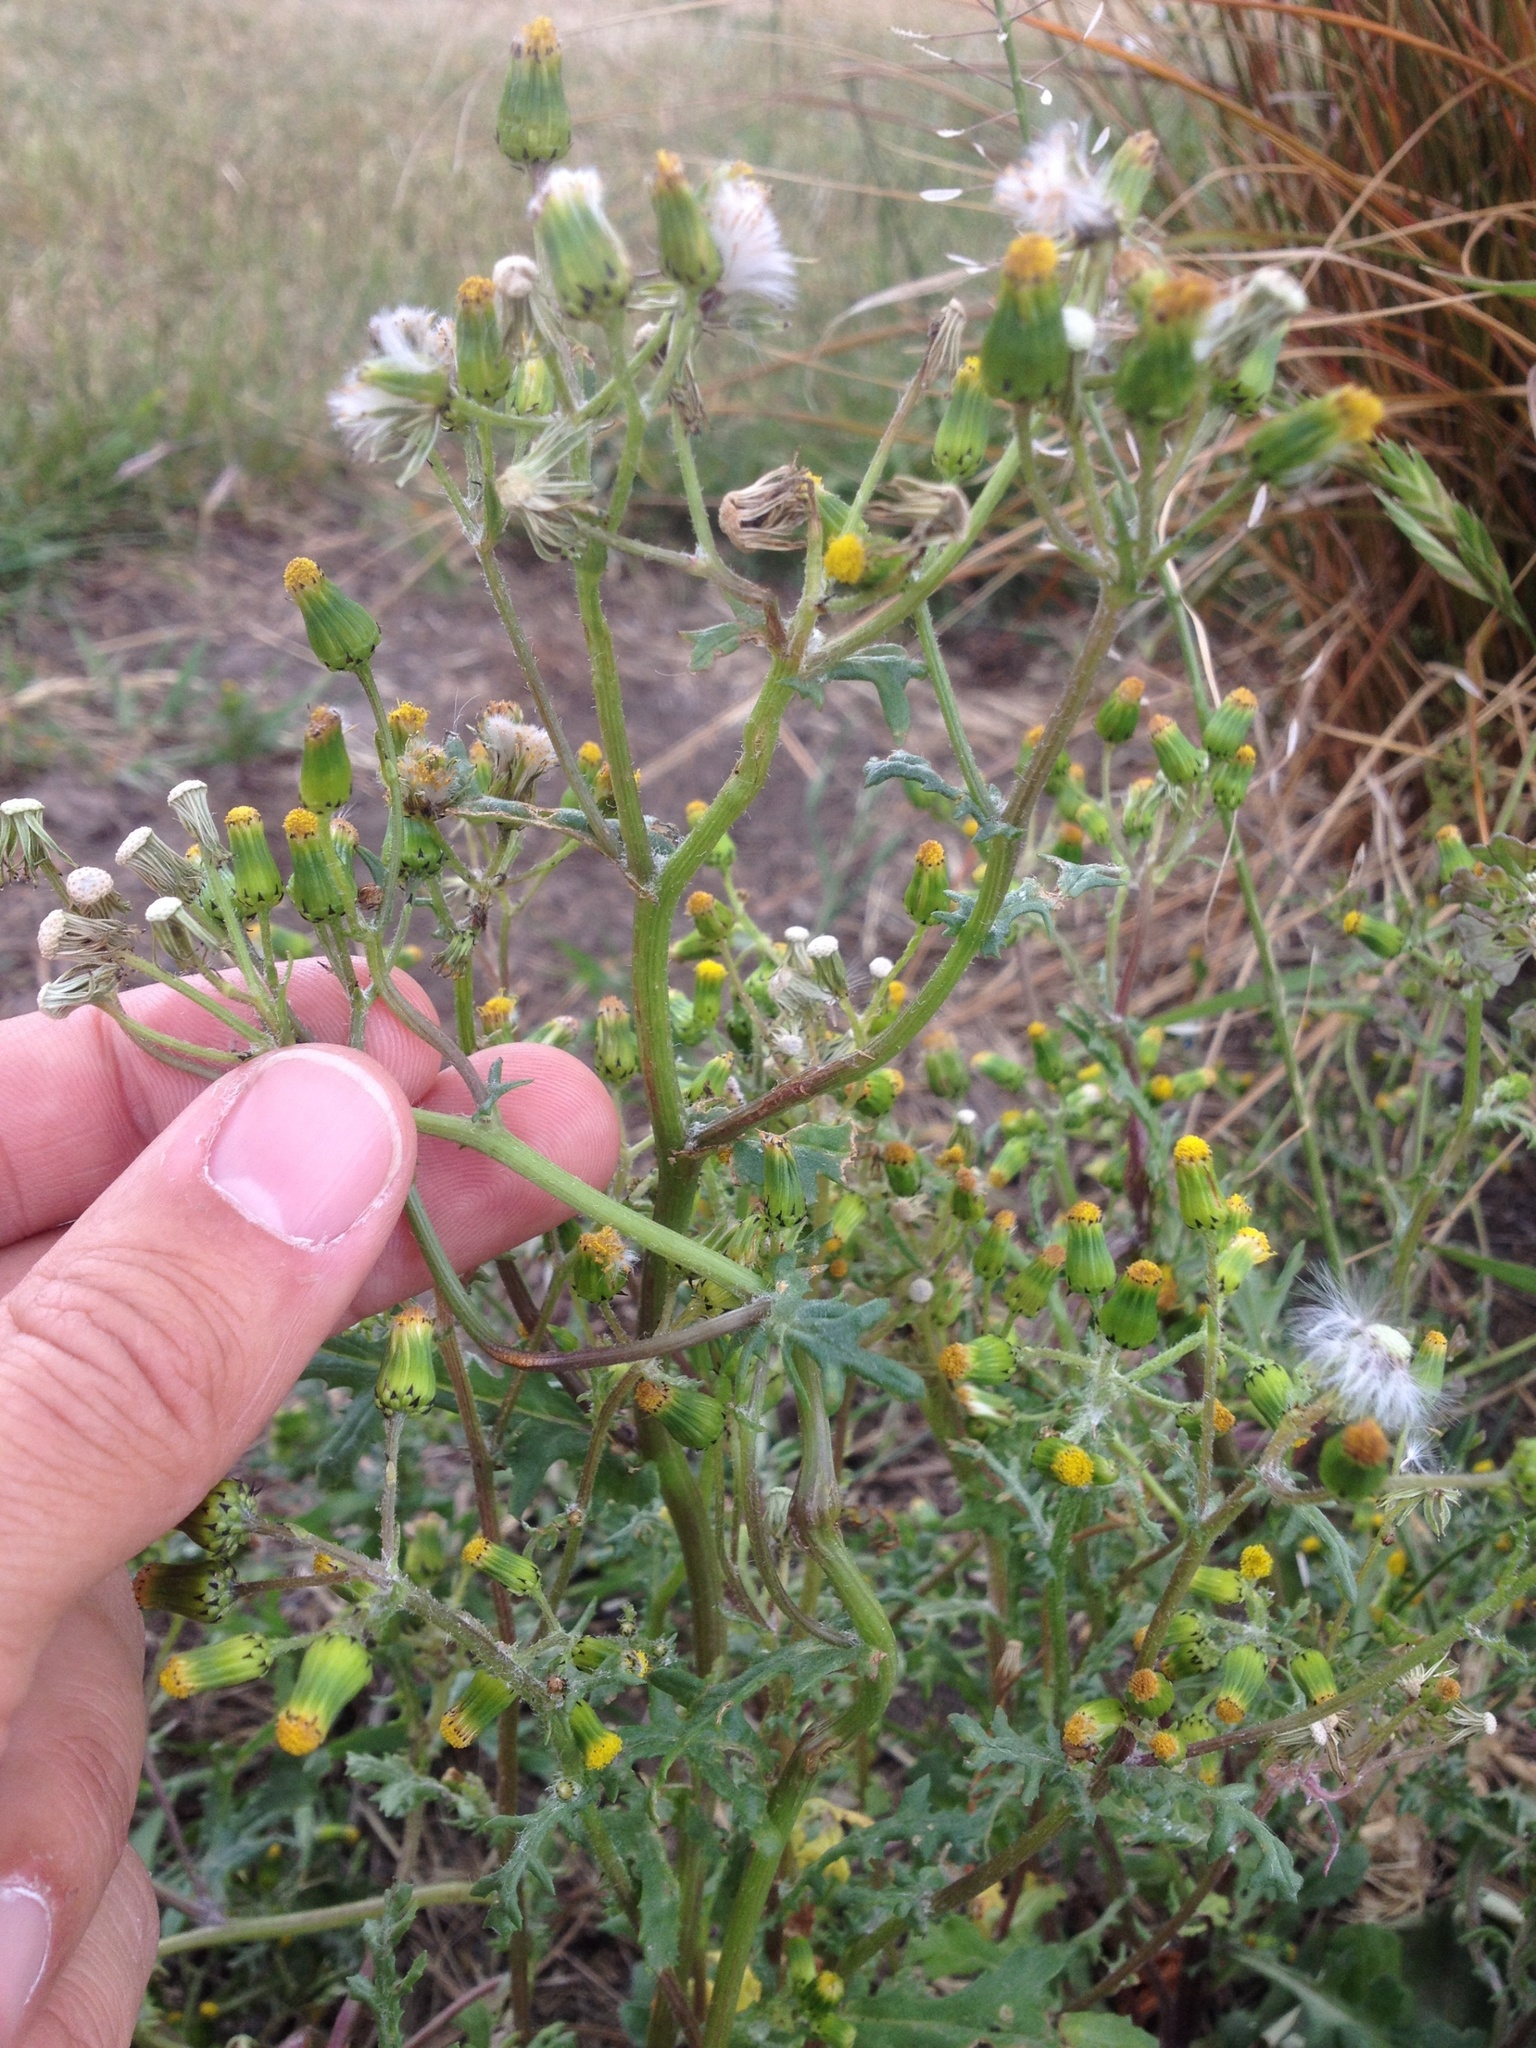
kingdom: Plantae
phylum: Tracheophyta
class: Magnoliopsida
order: Asterales
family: Asteraceae
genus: Senecio
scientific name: Senecio vulgaris
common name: Old-man-in-the-spring
